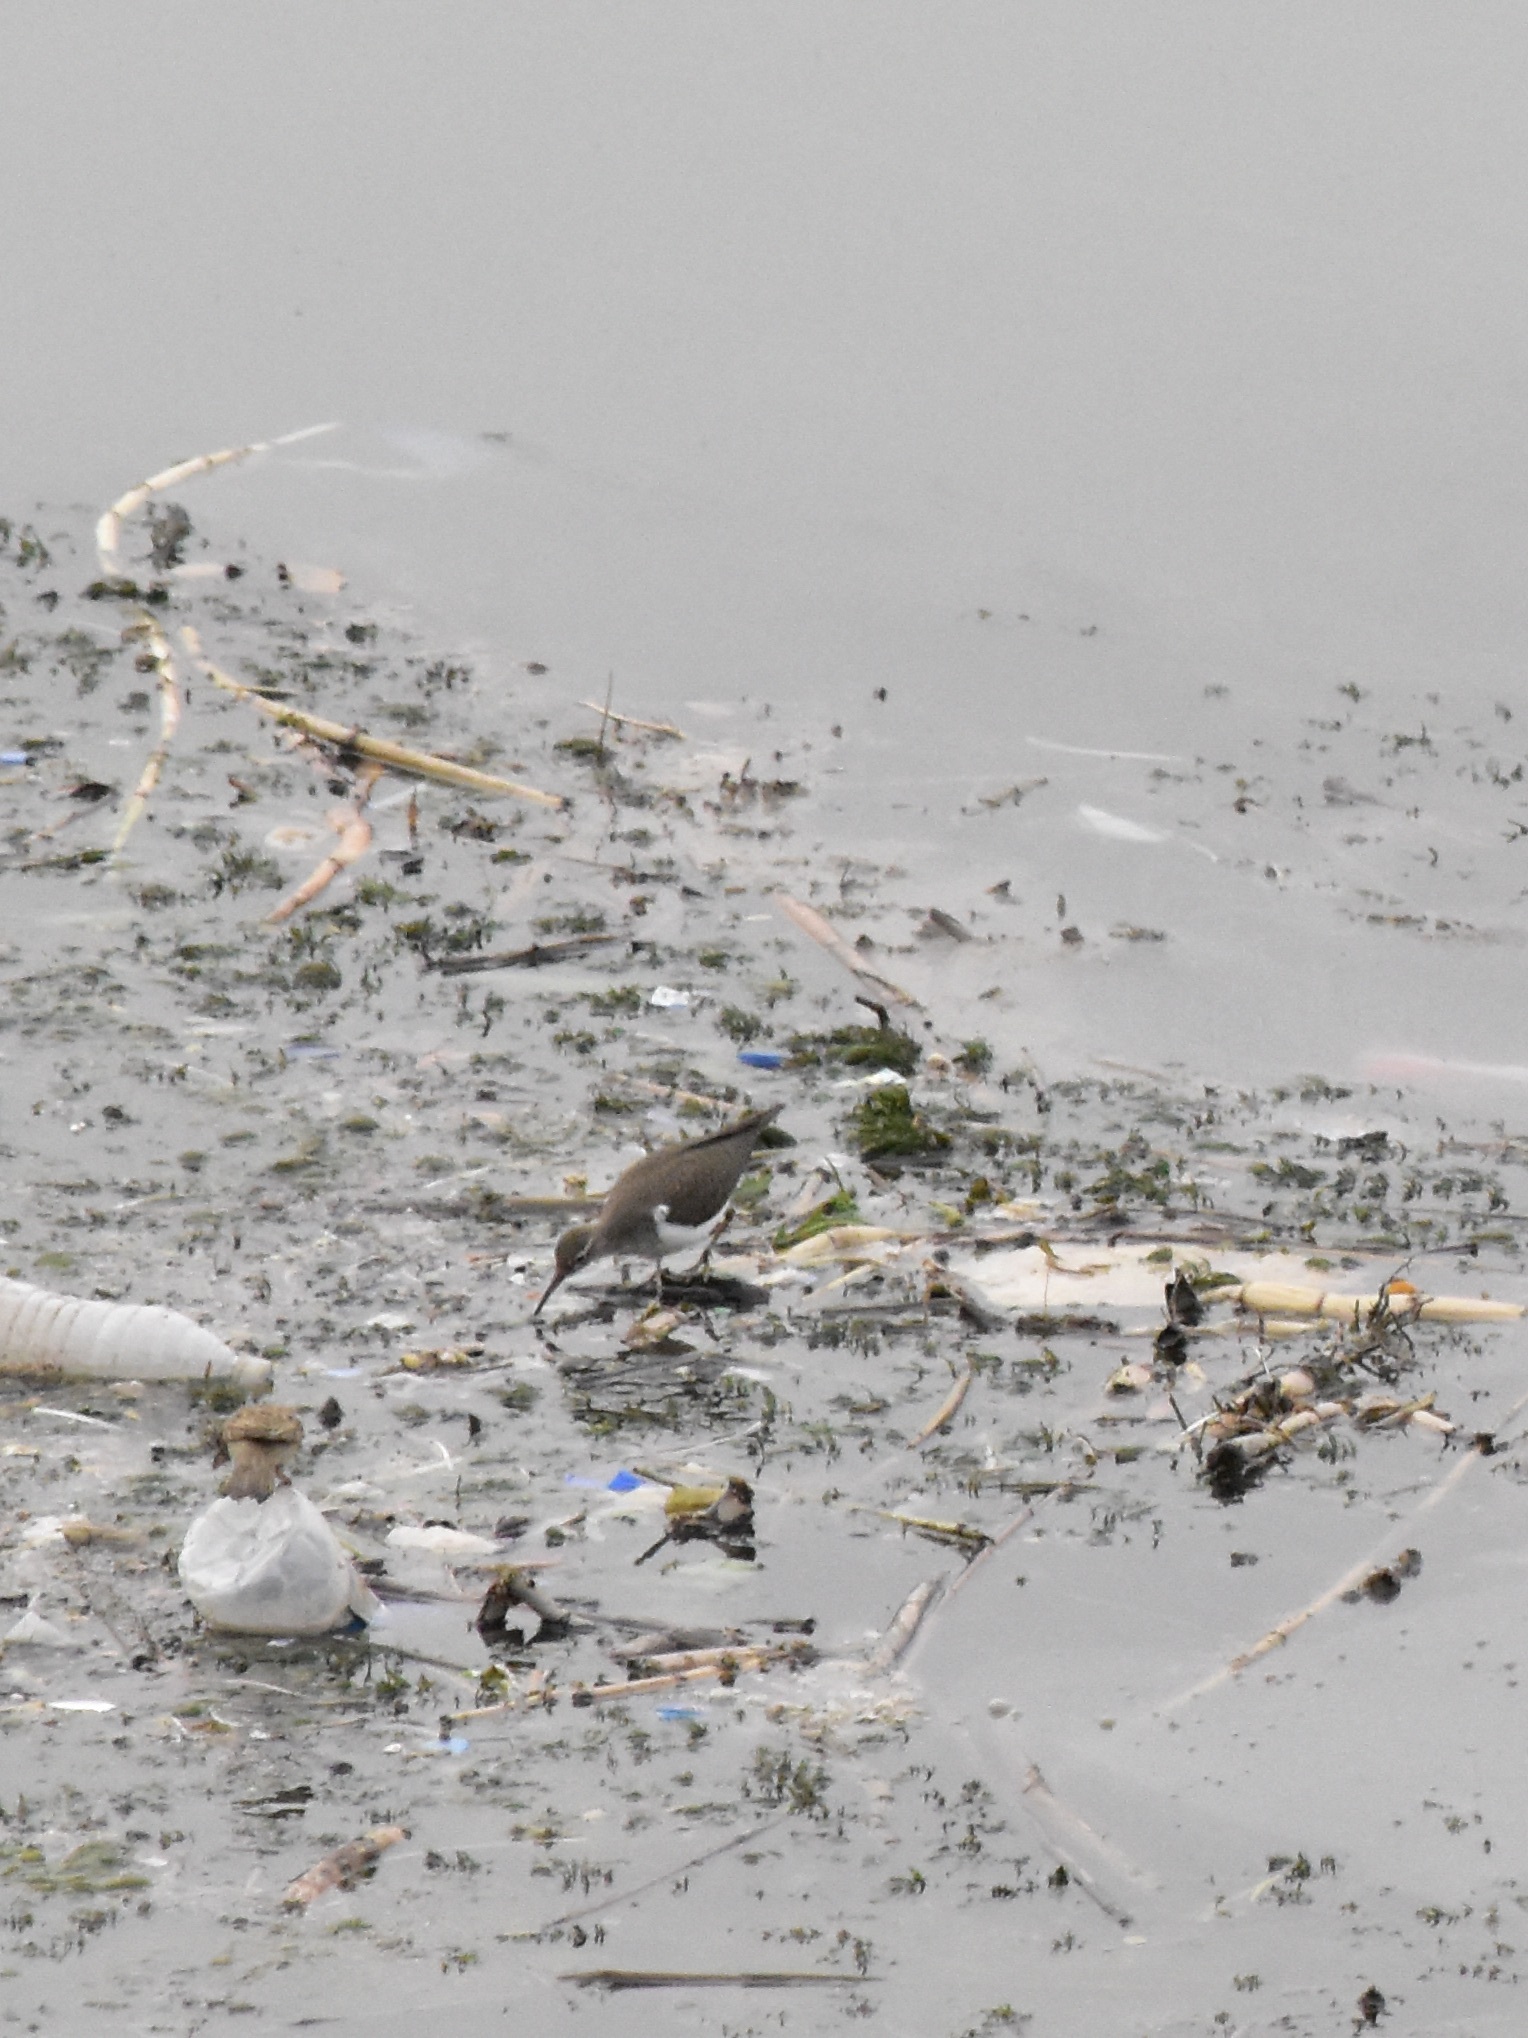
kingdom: Animalia
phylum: Chordata
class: Aves
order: Charadriiformes
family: Scolopacidae
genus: Actitis
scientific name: Actitis hypoleucos
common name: Common sandpiper
